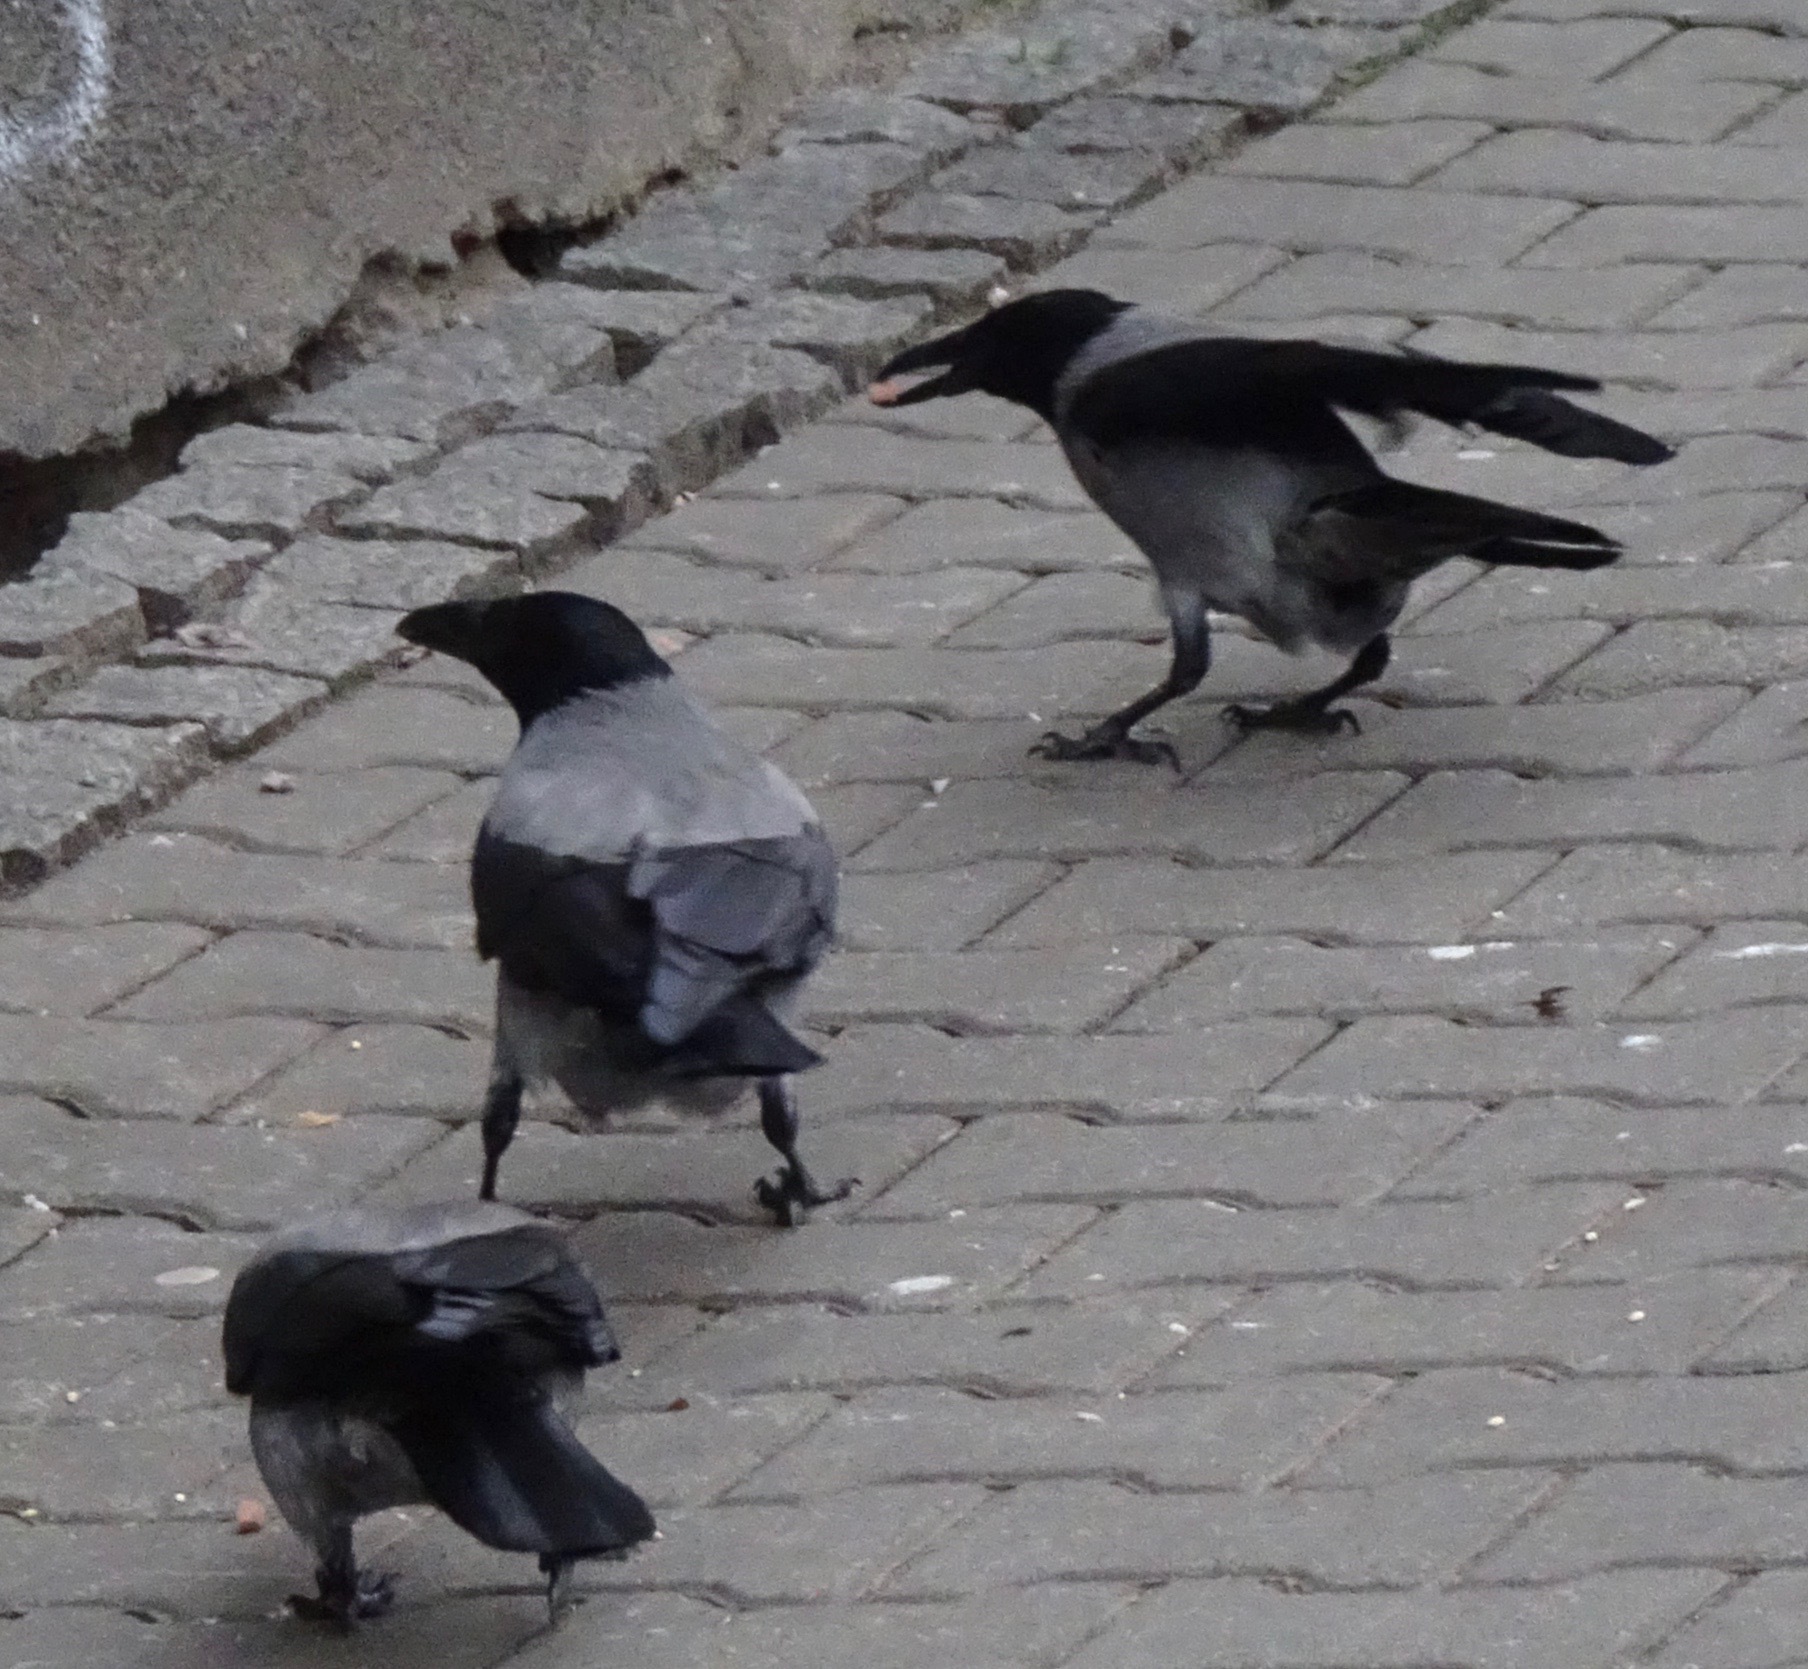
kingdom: Animalia
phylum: Chordata
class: Aves
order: Passeriformes
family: Corvidae
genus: Corvus
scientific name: Corvus cornix
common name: Hooded crow
